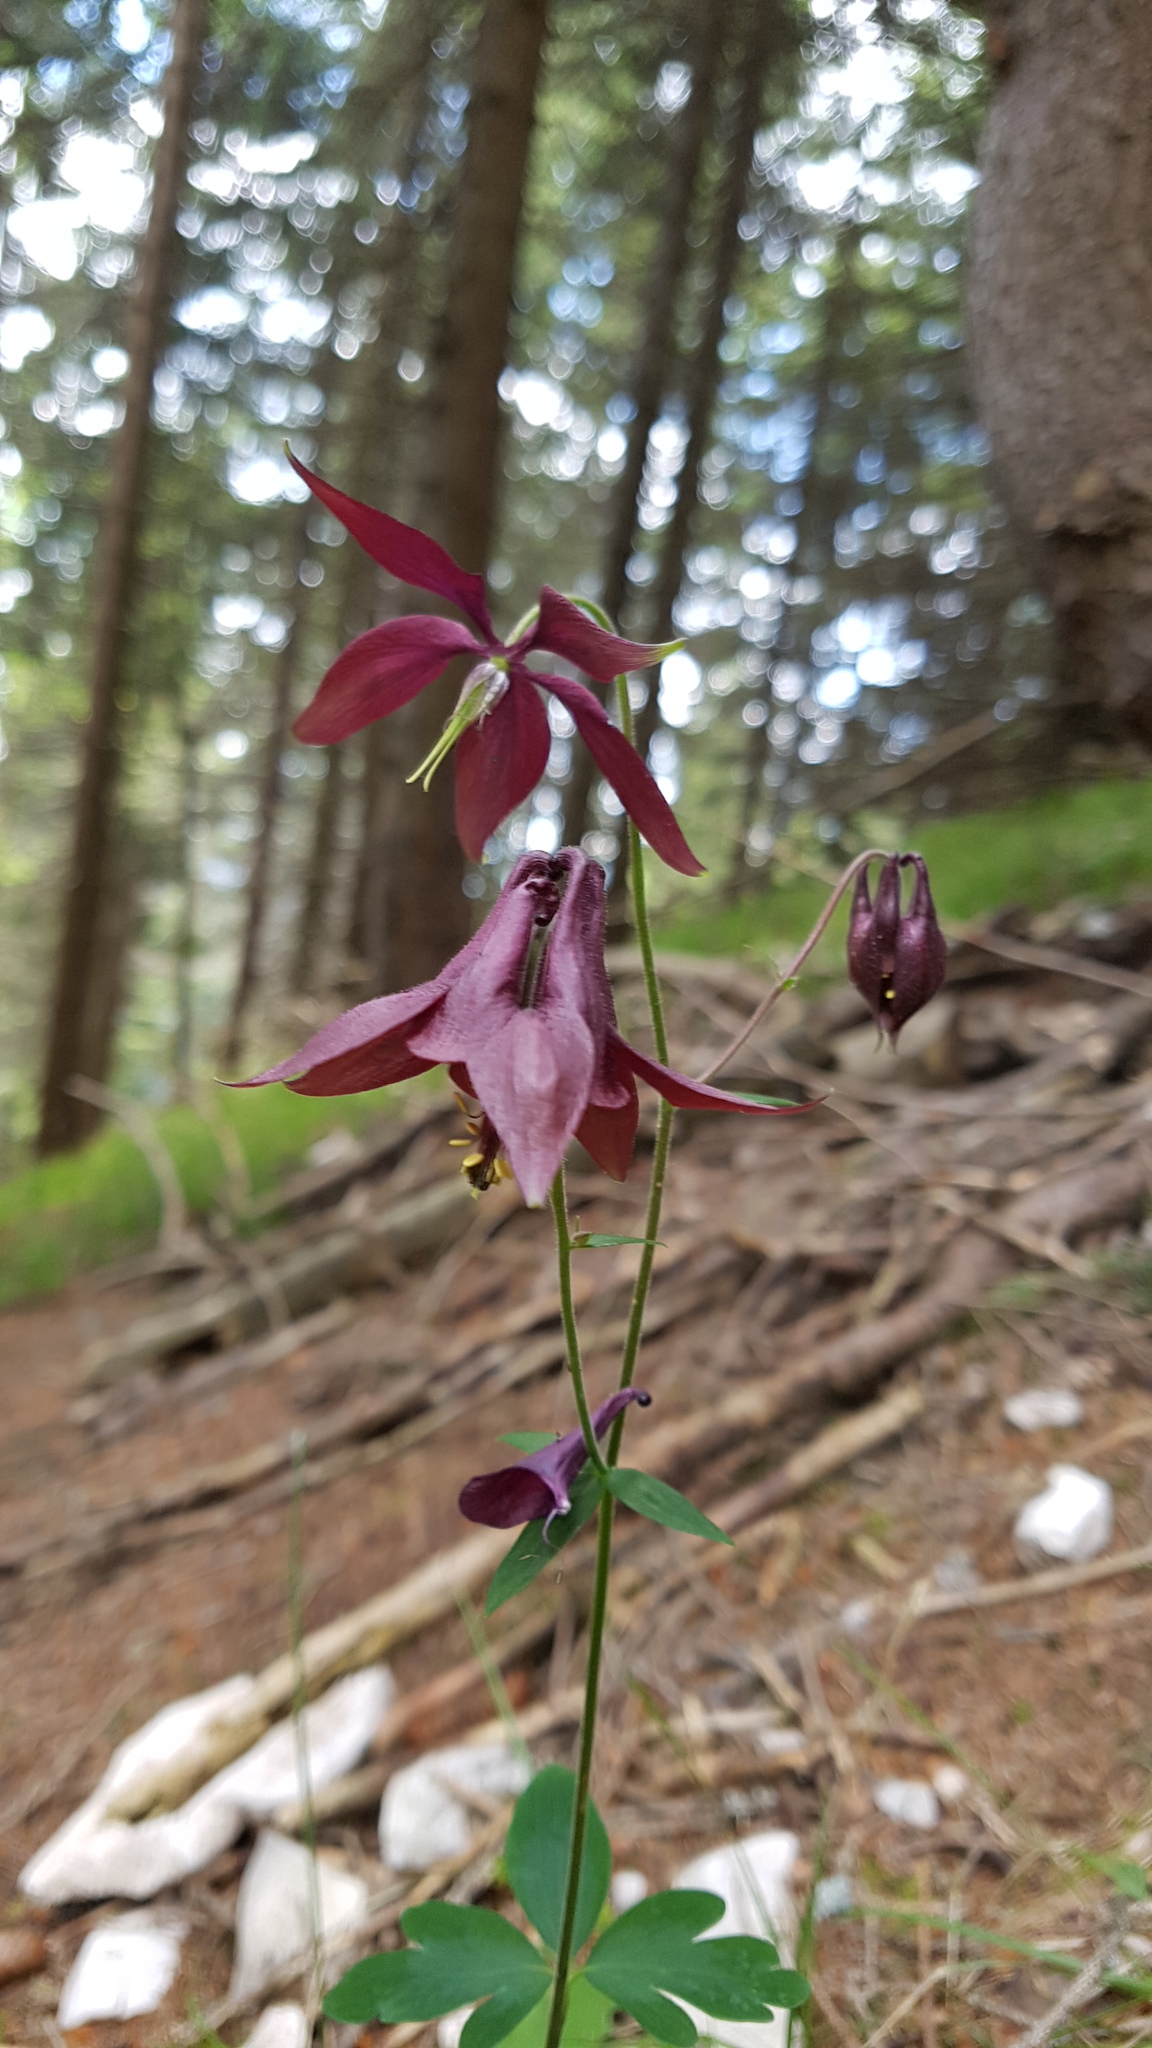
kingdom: Plantae
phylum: Tracheophyta
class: Magnoliopsida
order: Ranunculales
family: Ranunculaceae
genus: Aquilegia
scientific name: Aquilegia atrata
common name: Dark columbine
